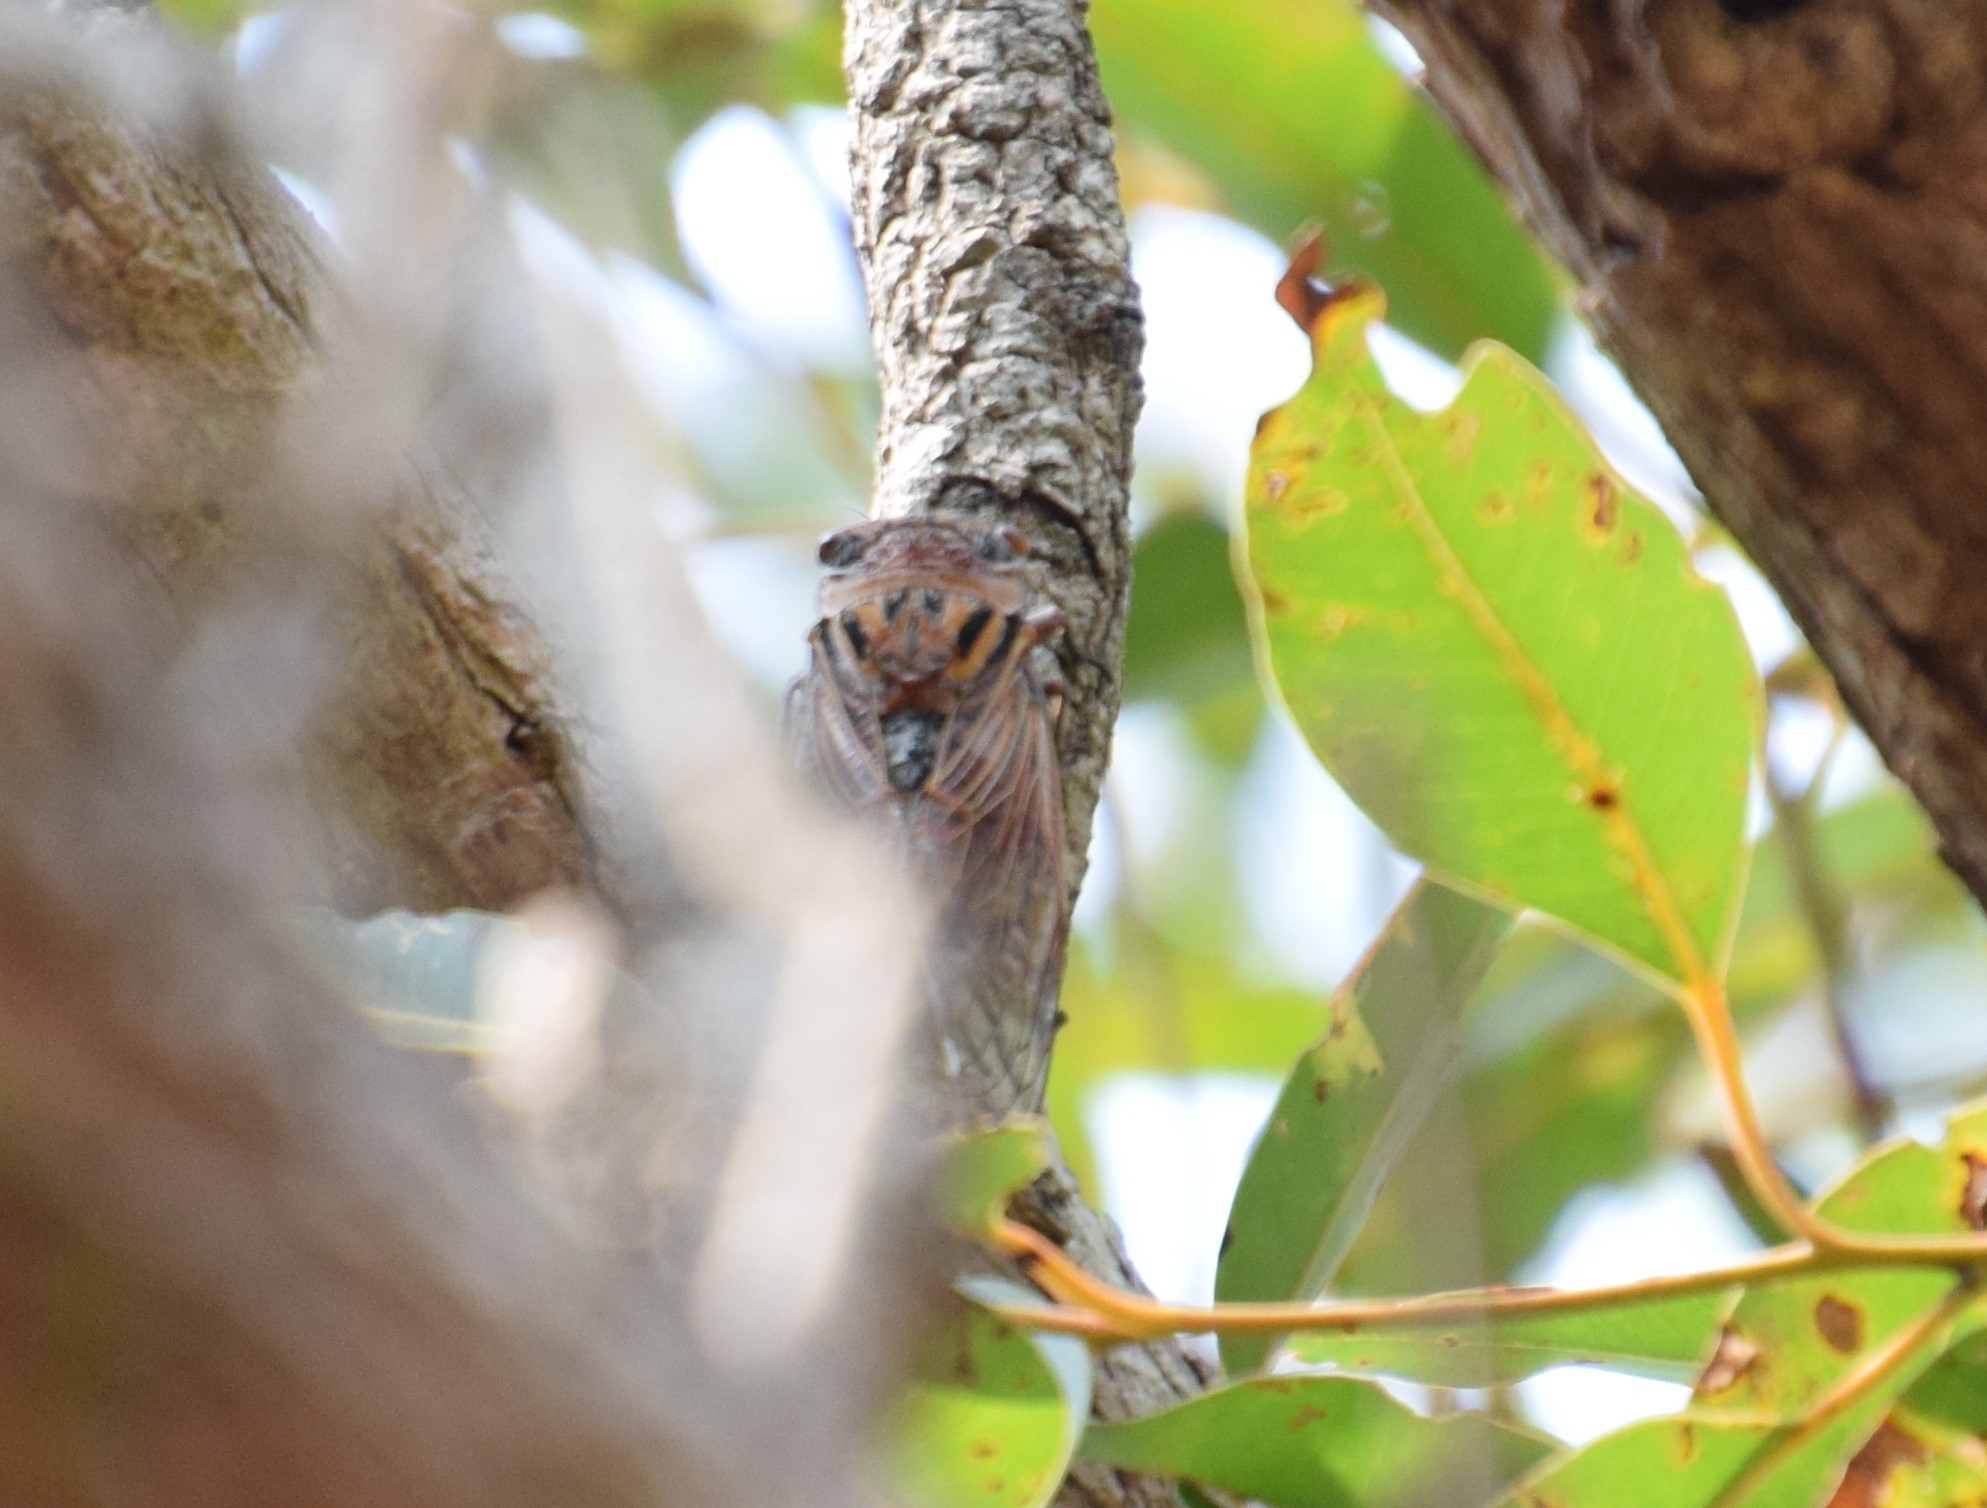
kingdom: Animalia
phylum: Arthropoda
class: Insecta
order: Hemiptera
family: Cicadidae
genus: Thopha
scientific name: Thopha saccata
